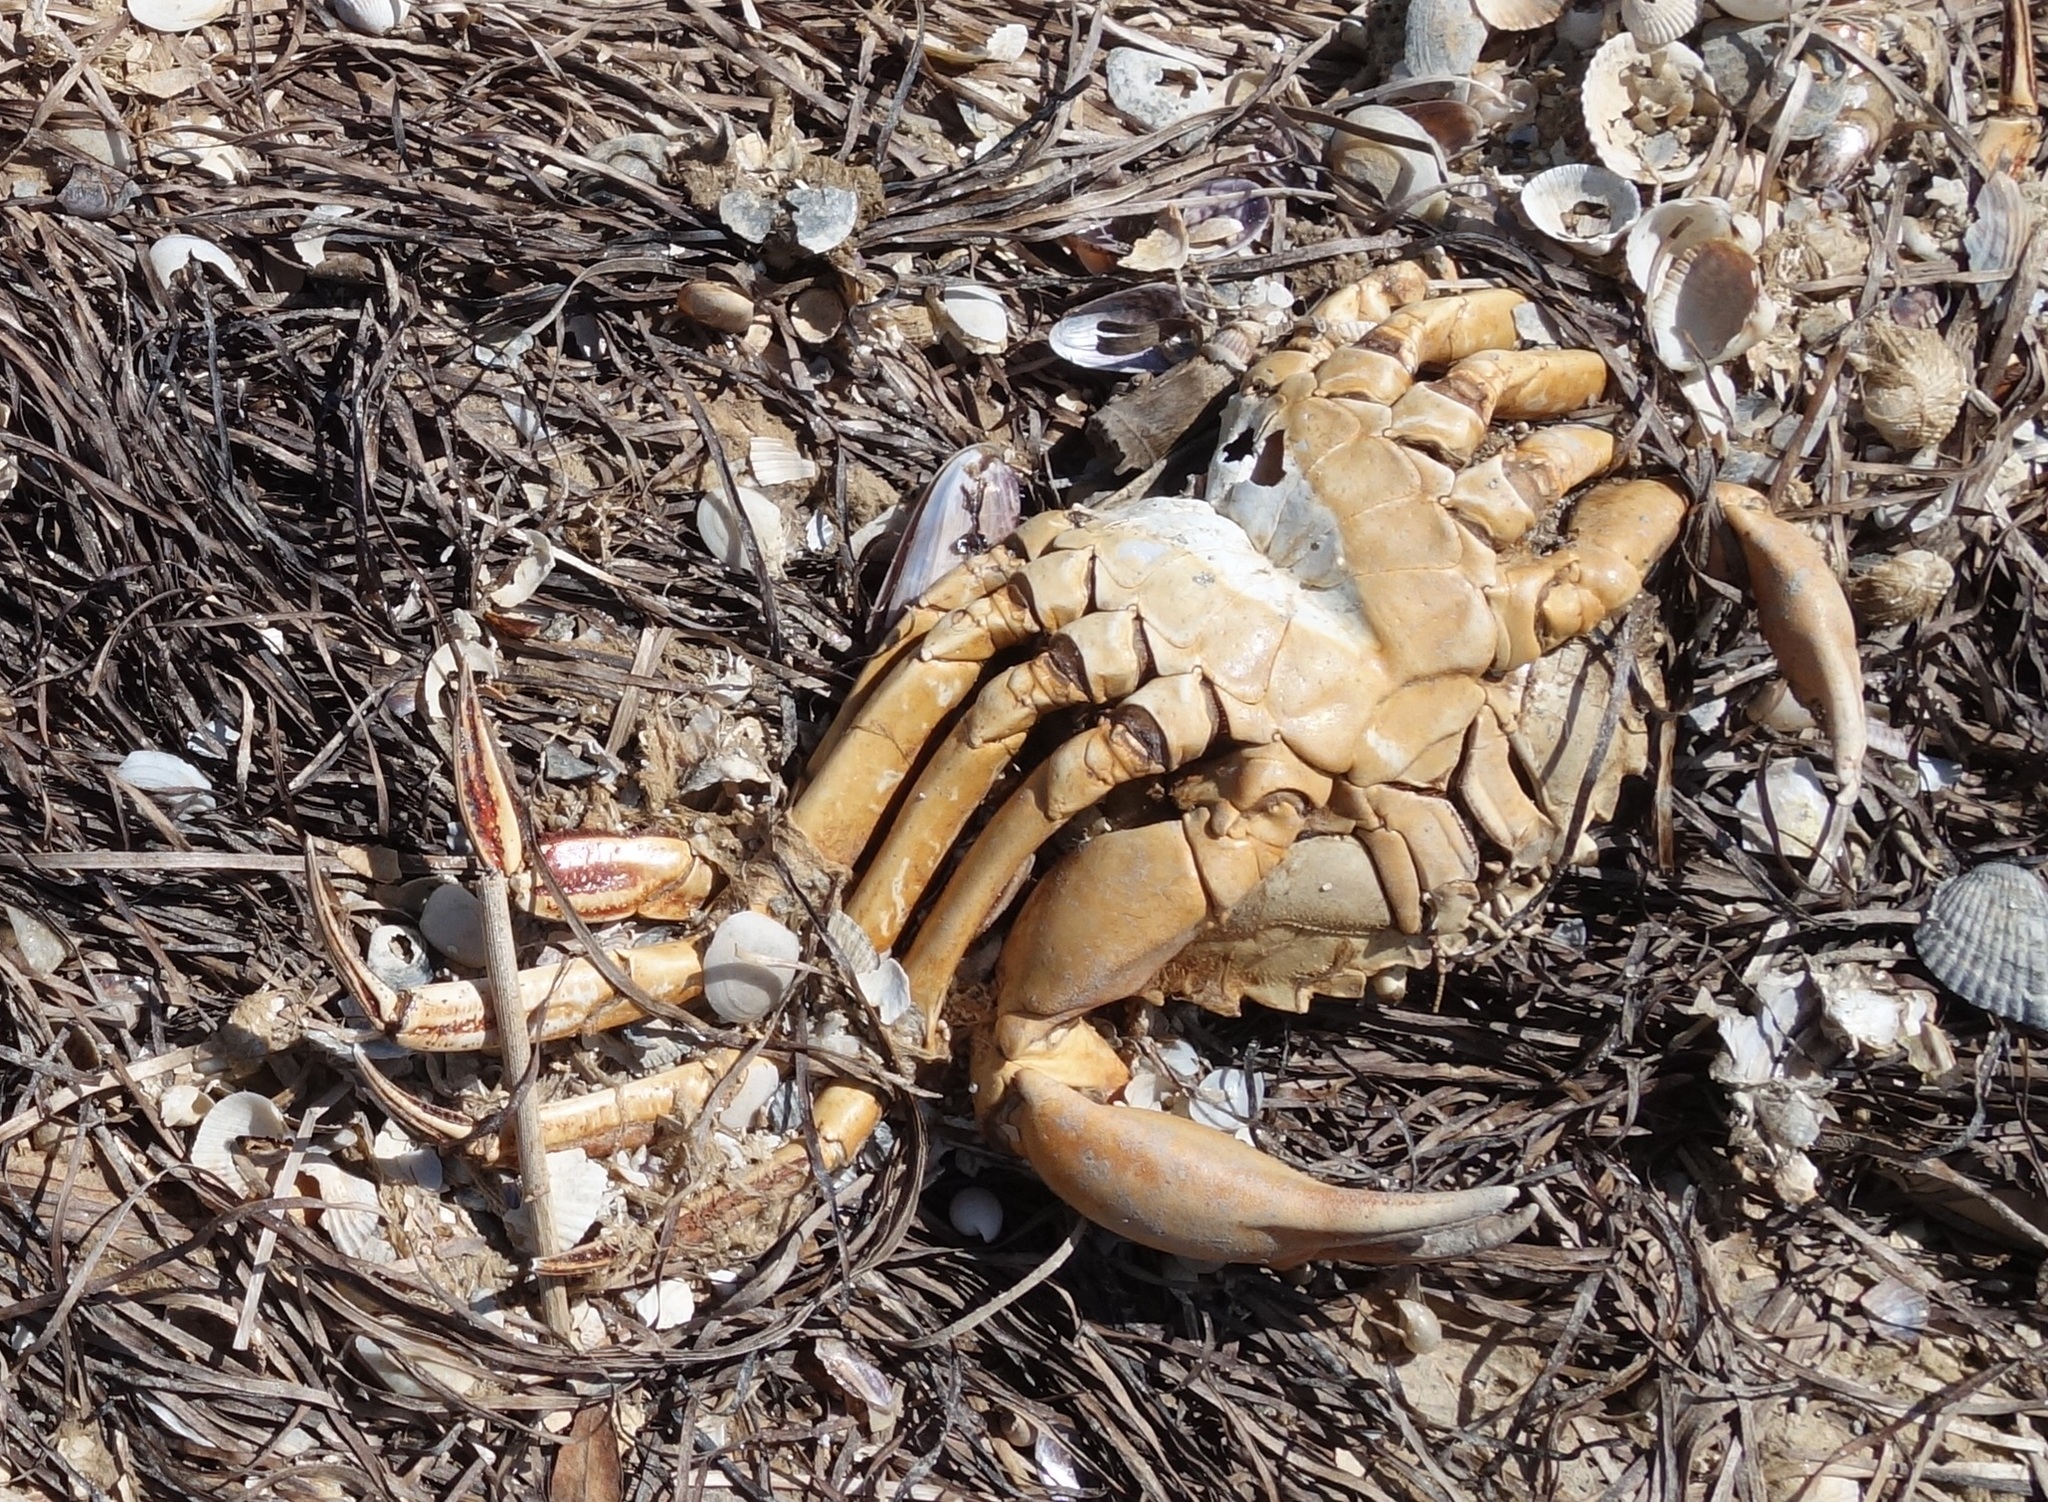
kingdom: Animalia
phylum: Arthropoda
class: Malacostraca
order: Decapoda
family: Carcinidae
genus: Carcinus
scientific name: Carcinus aestuarii
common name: Mediterranean green crab
